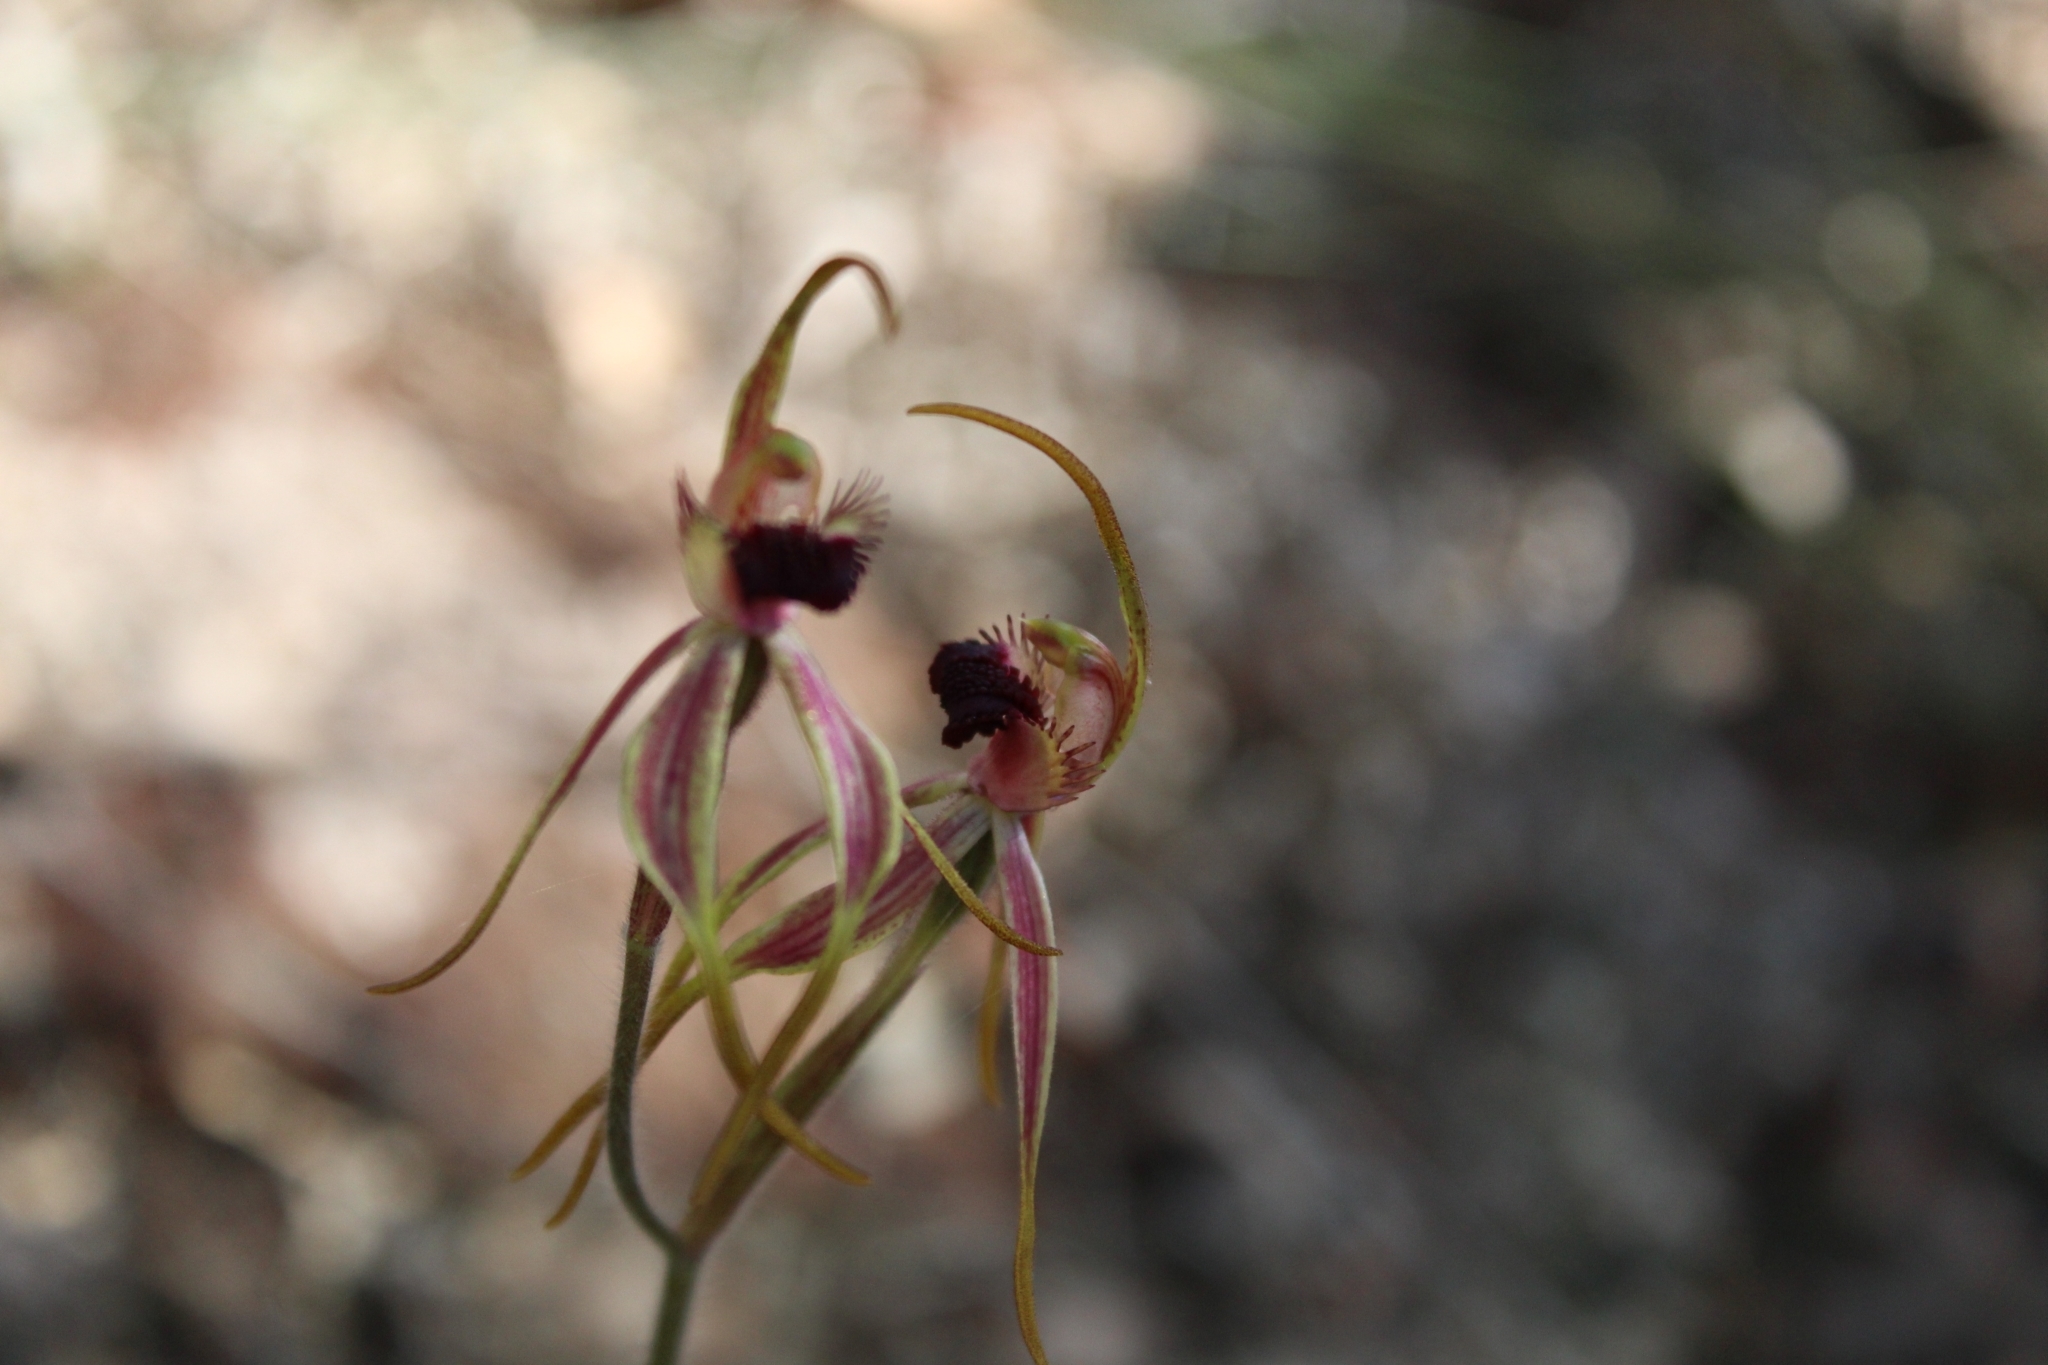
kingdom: Plantae
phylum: Tracheophyta
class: Liliopsida
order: Asparagales
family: Orchidaceae
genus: Caladenia
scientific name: Caladenia longiclavata
